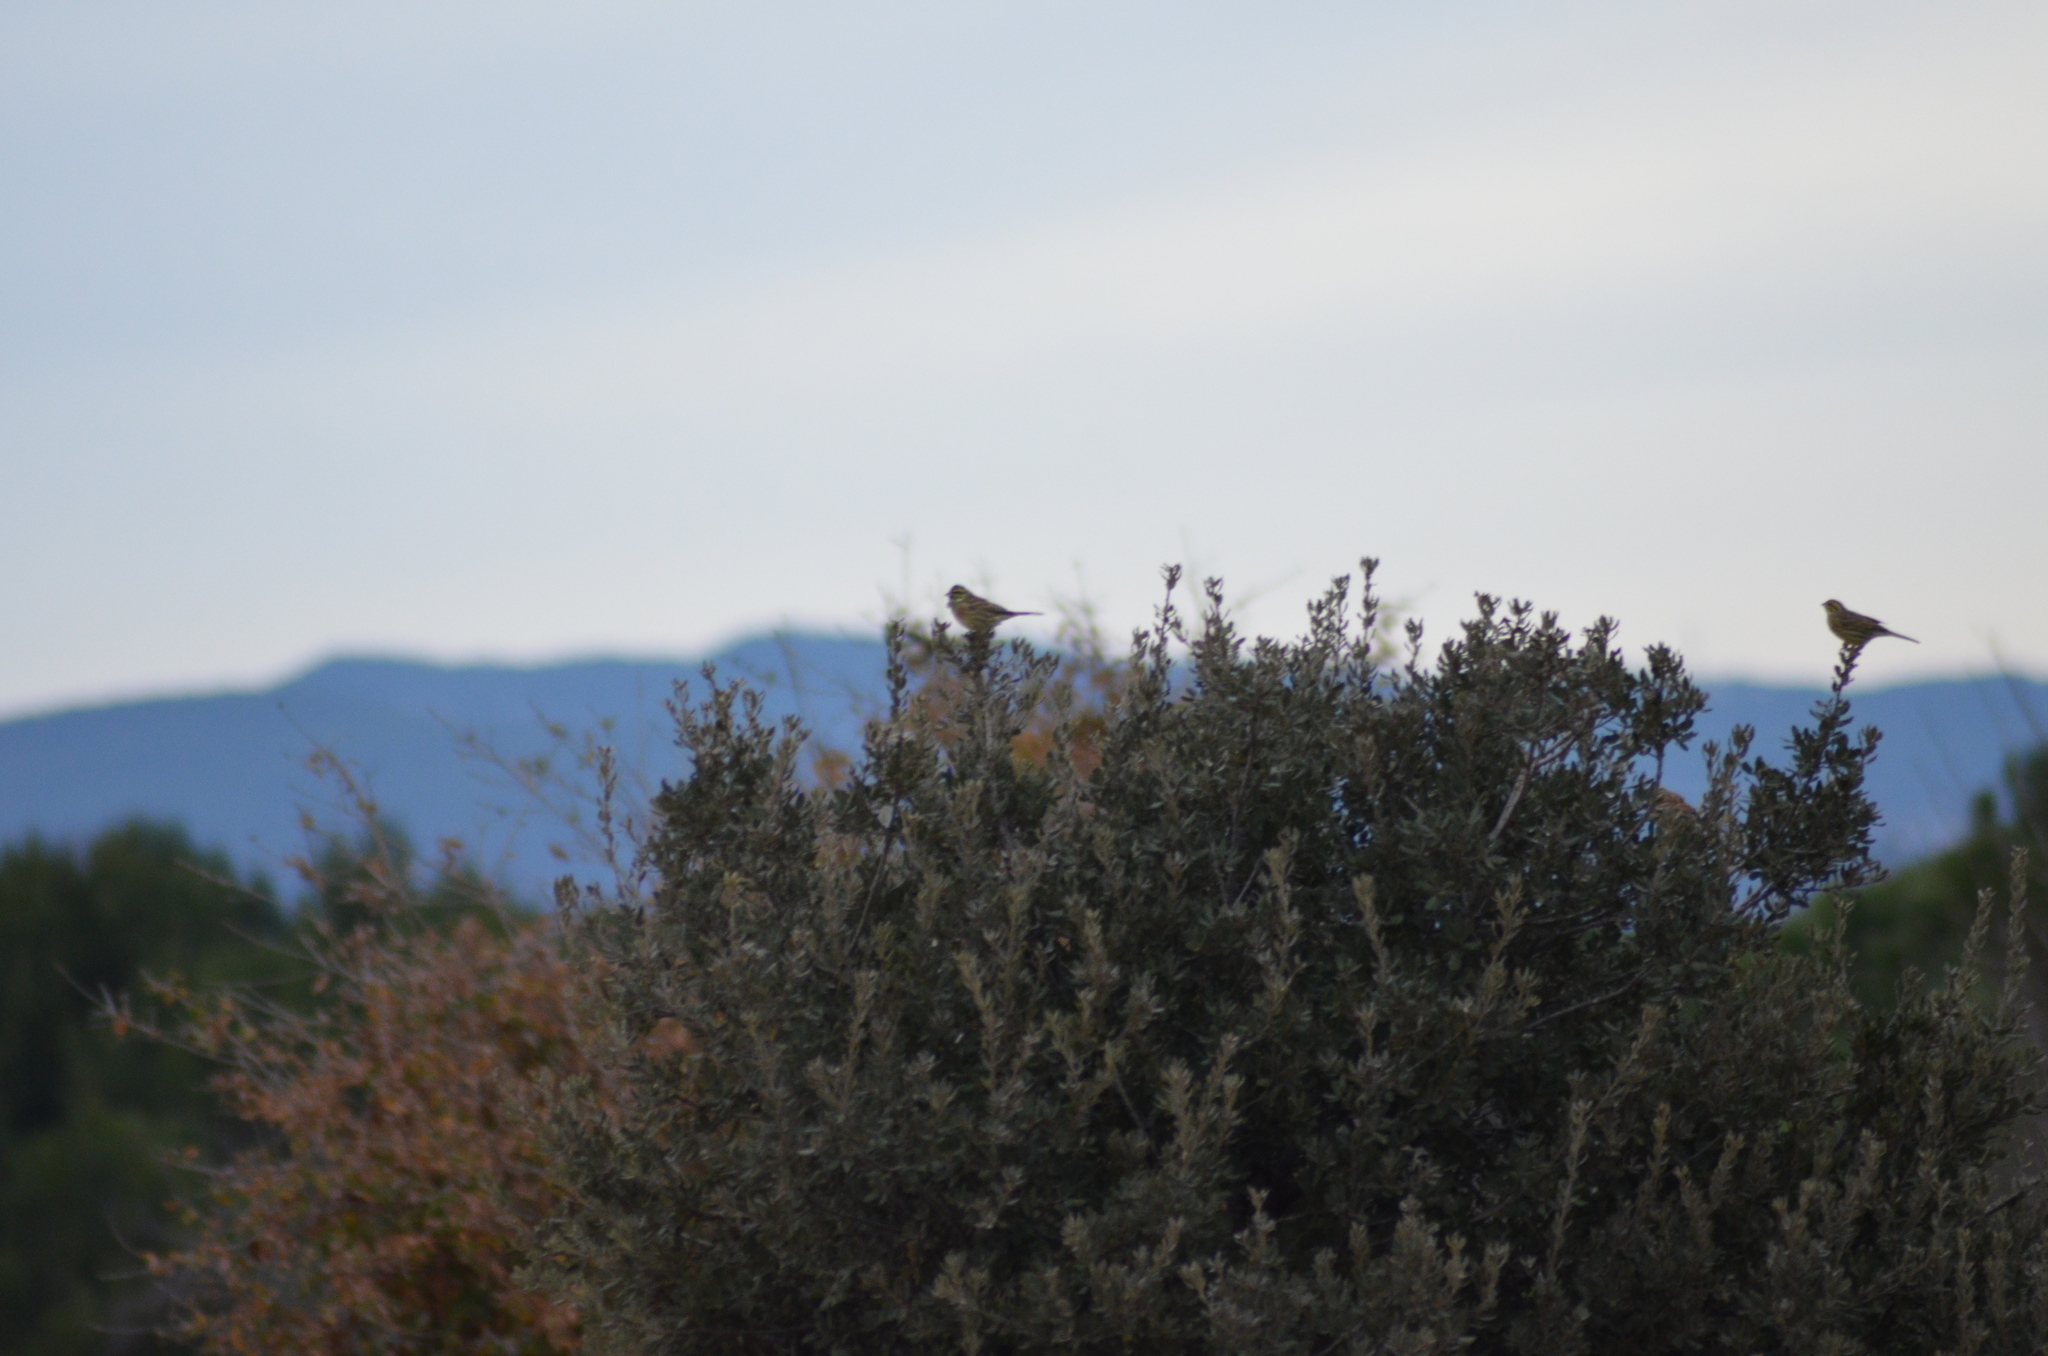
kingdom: Animalia
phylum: Chordata
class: Aves
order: Passeriformes
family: Emberizidae
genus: Emberiza
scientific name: Emberiza cirlus
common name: Cirl bunting
